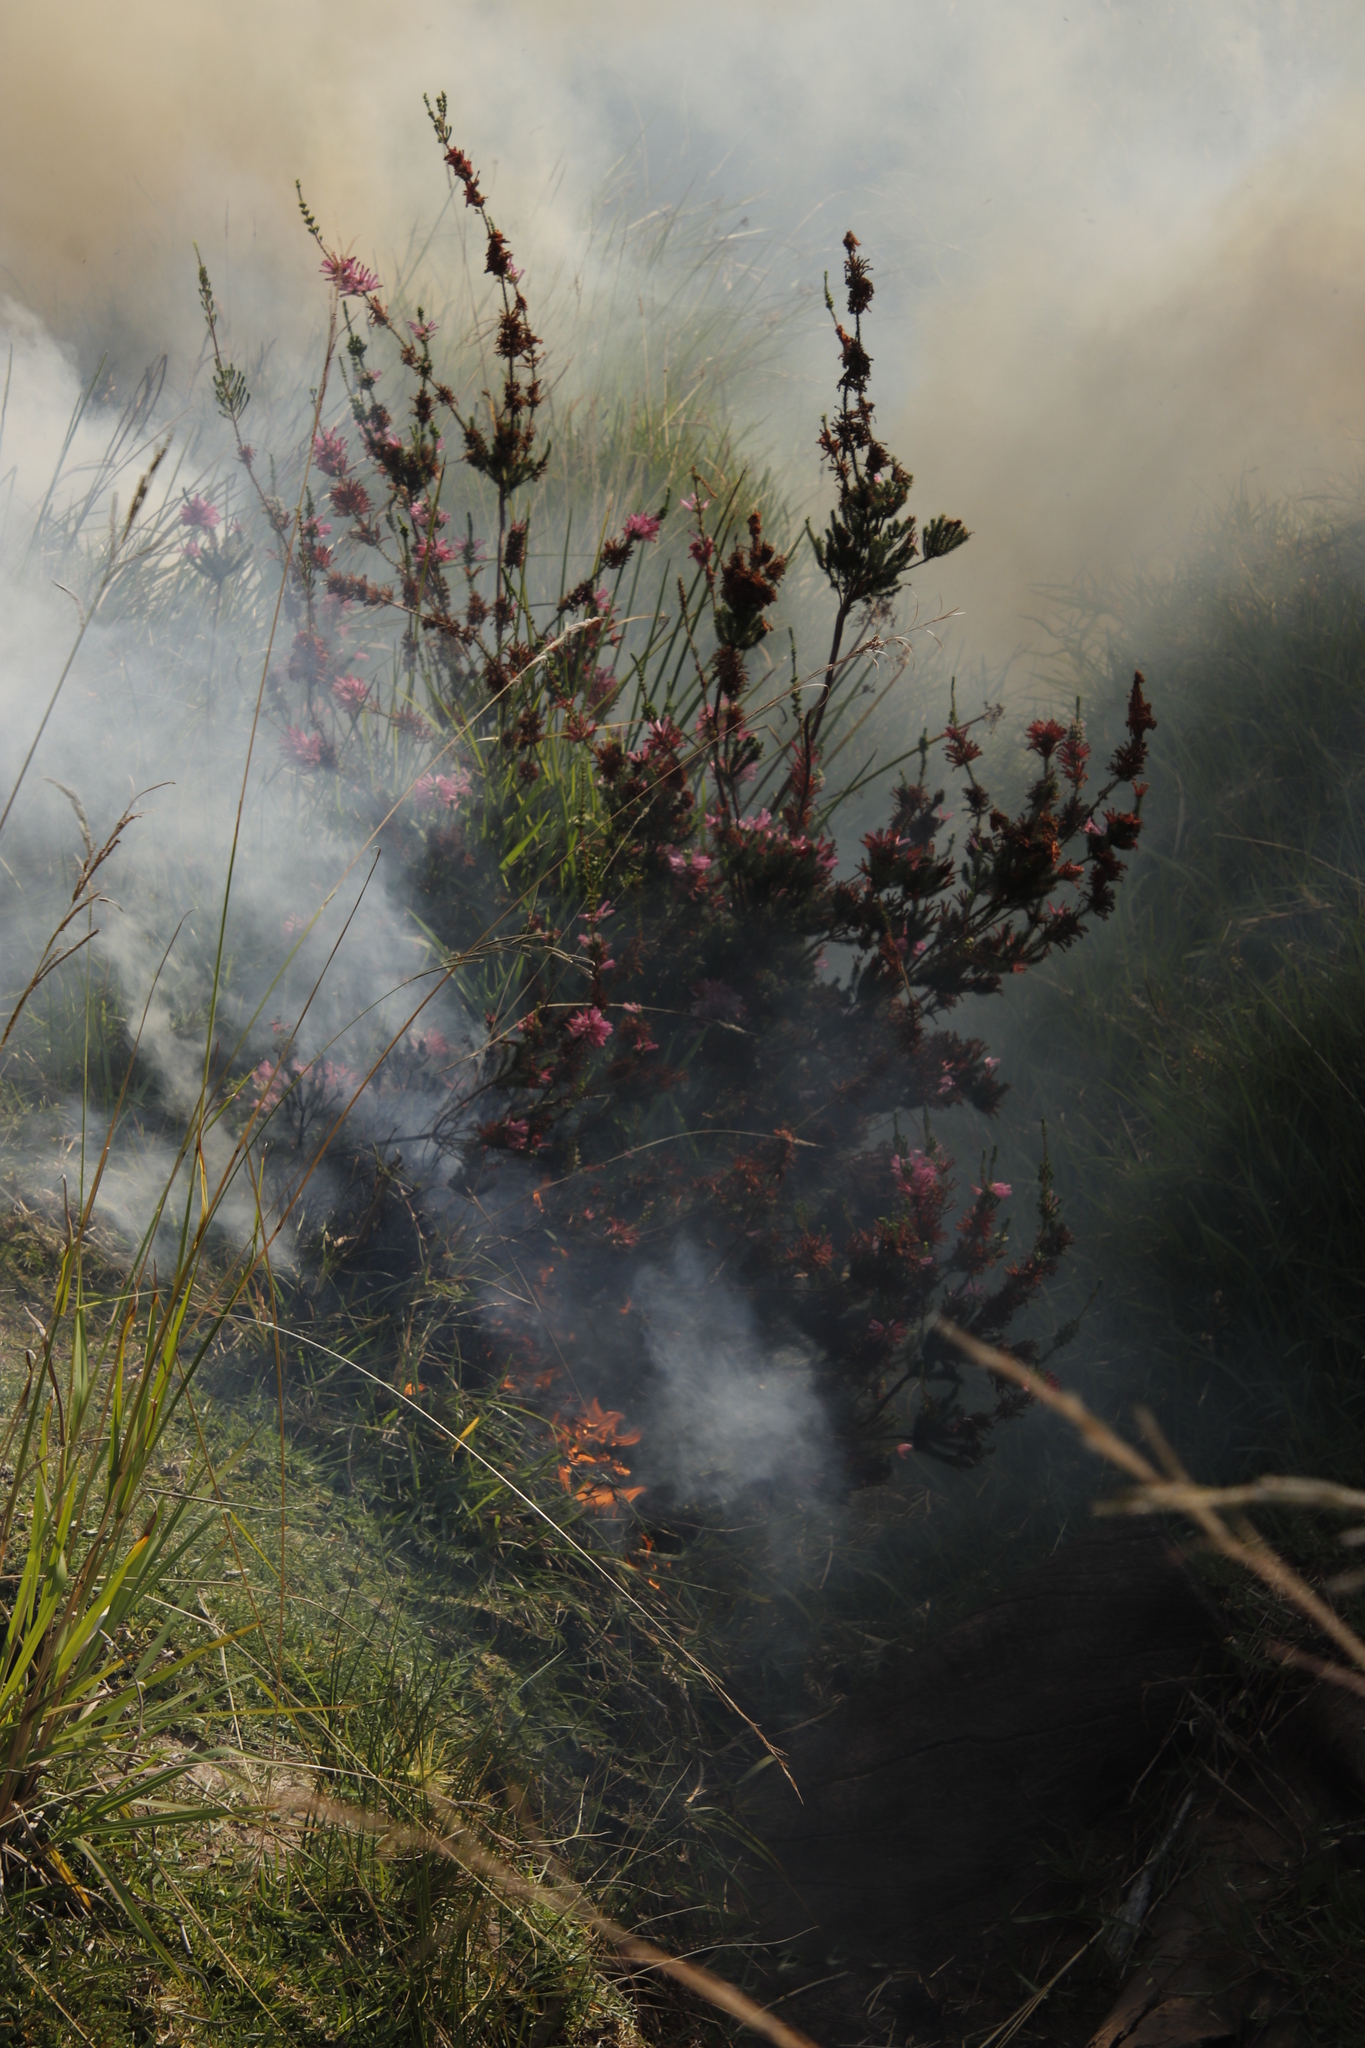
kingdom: Plantae
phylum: Tracheophyta
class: Magnoliopsida
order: Ericales
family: Ericaceae
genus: Erica
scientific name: Erica verticillata
